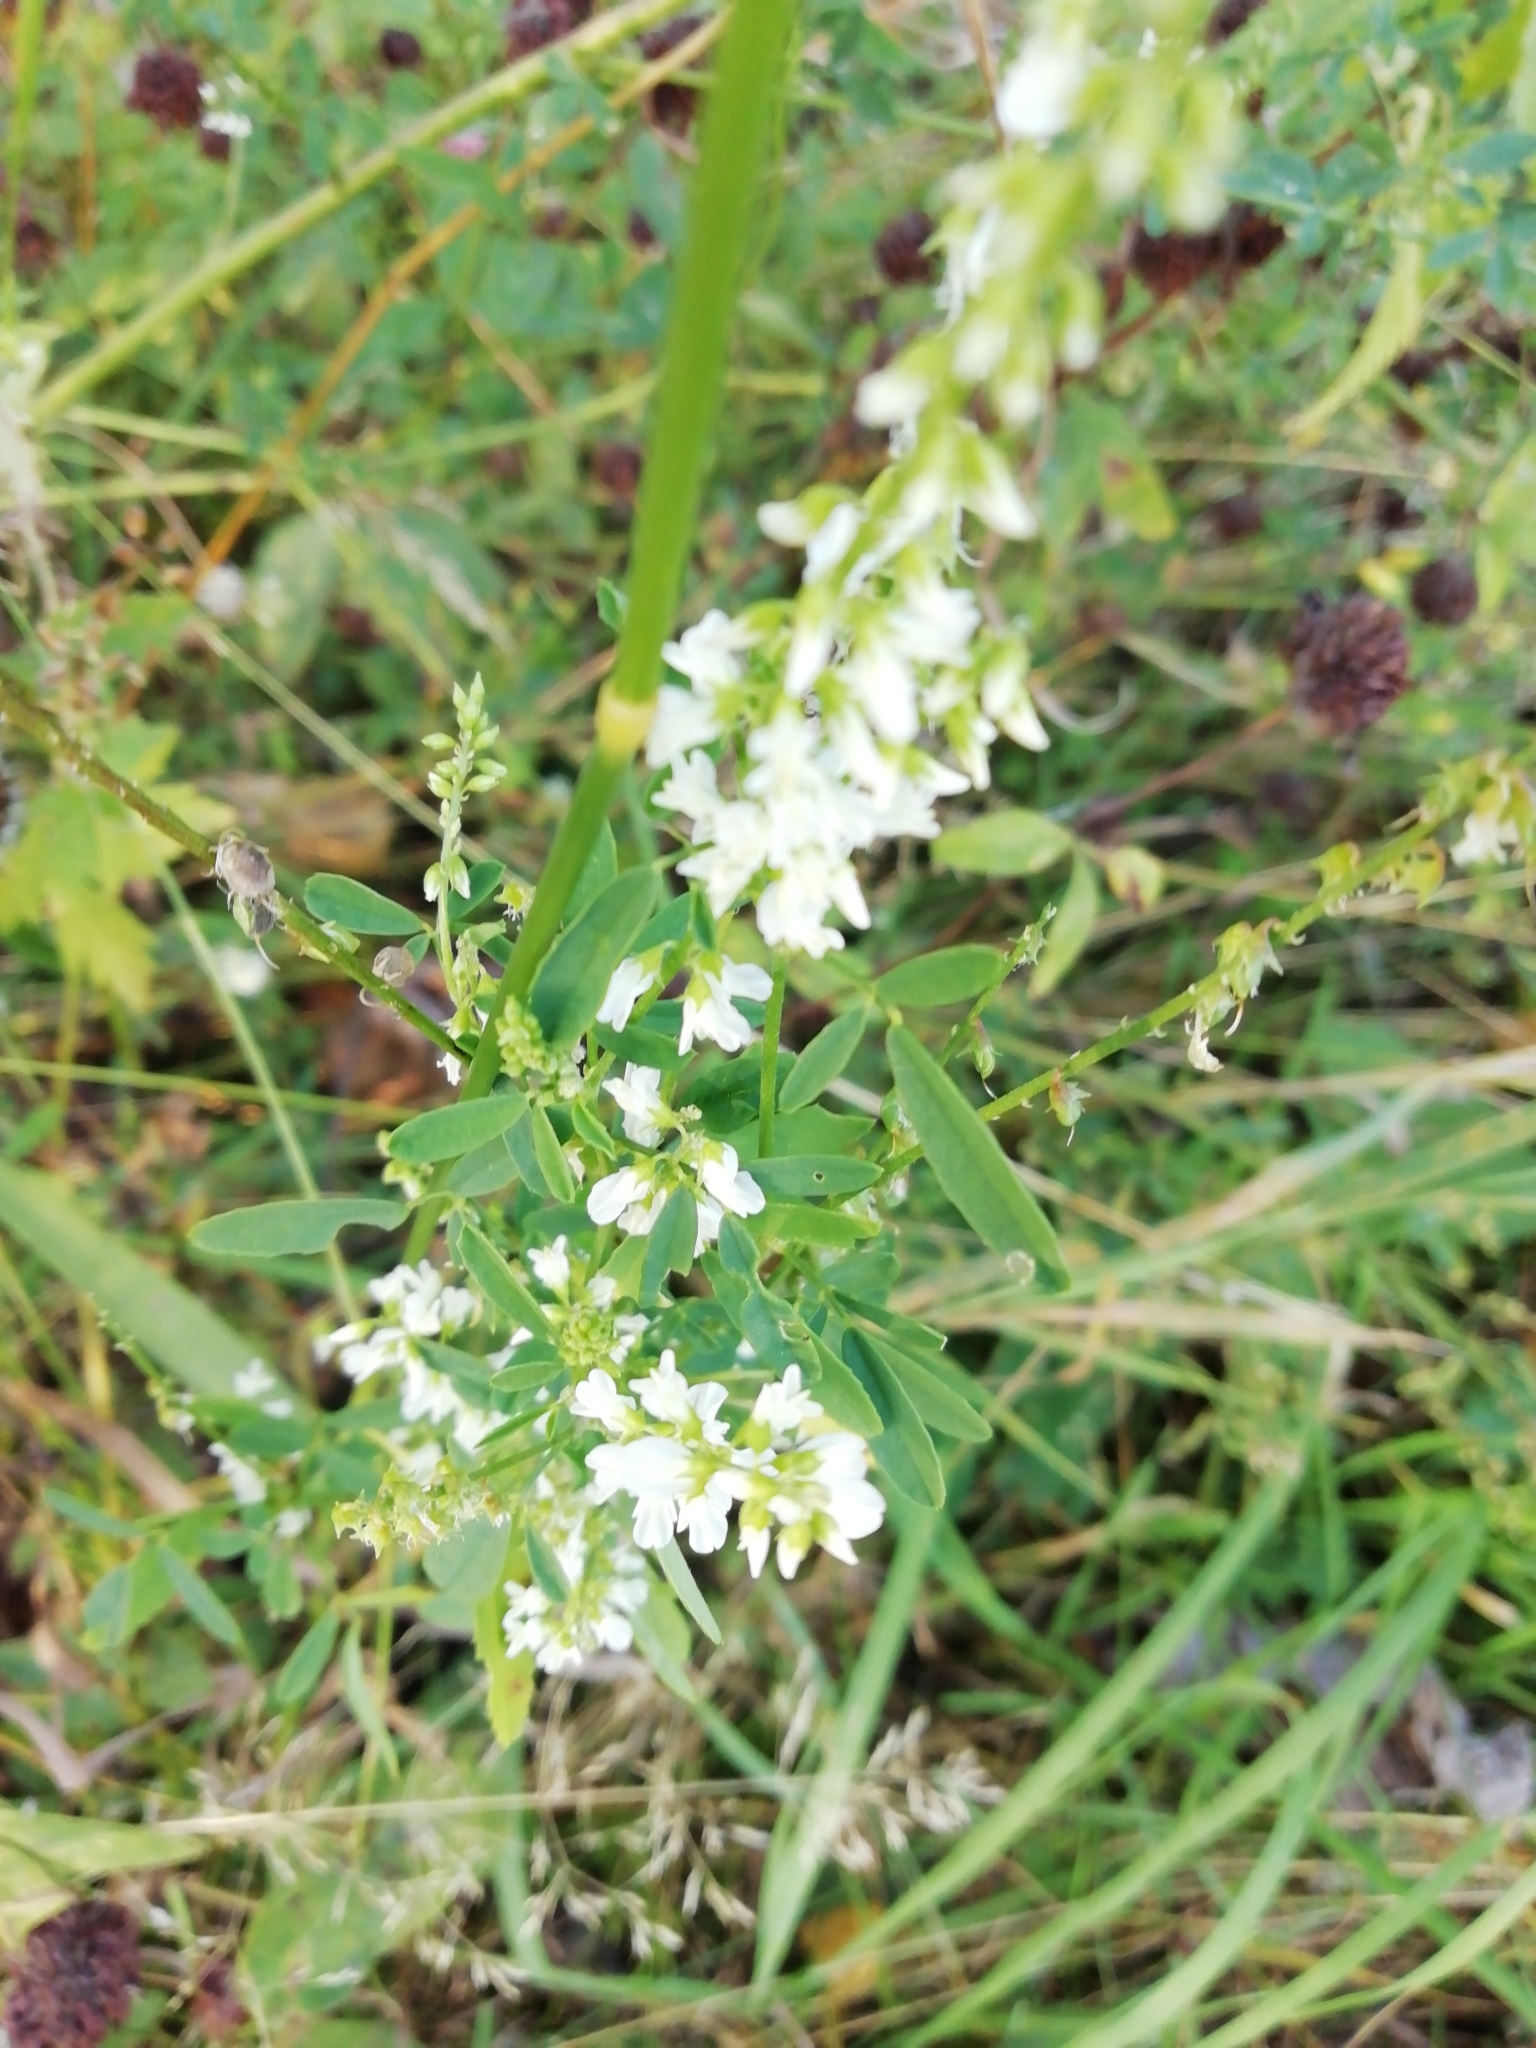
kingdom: Plantae
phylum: Tracheophyta
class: Magnoliopsida
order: Fabales
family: Fabaceae
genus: Melilotus
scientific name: Melilotus albus
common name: White melilot
